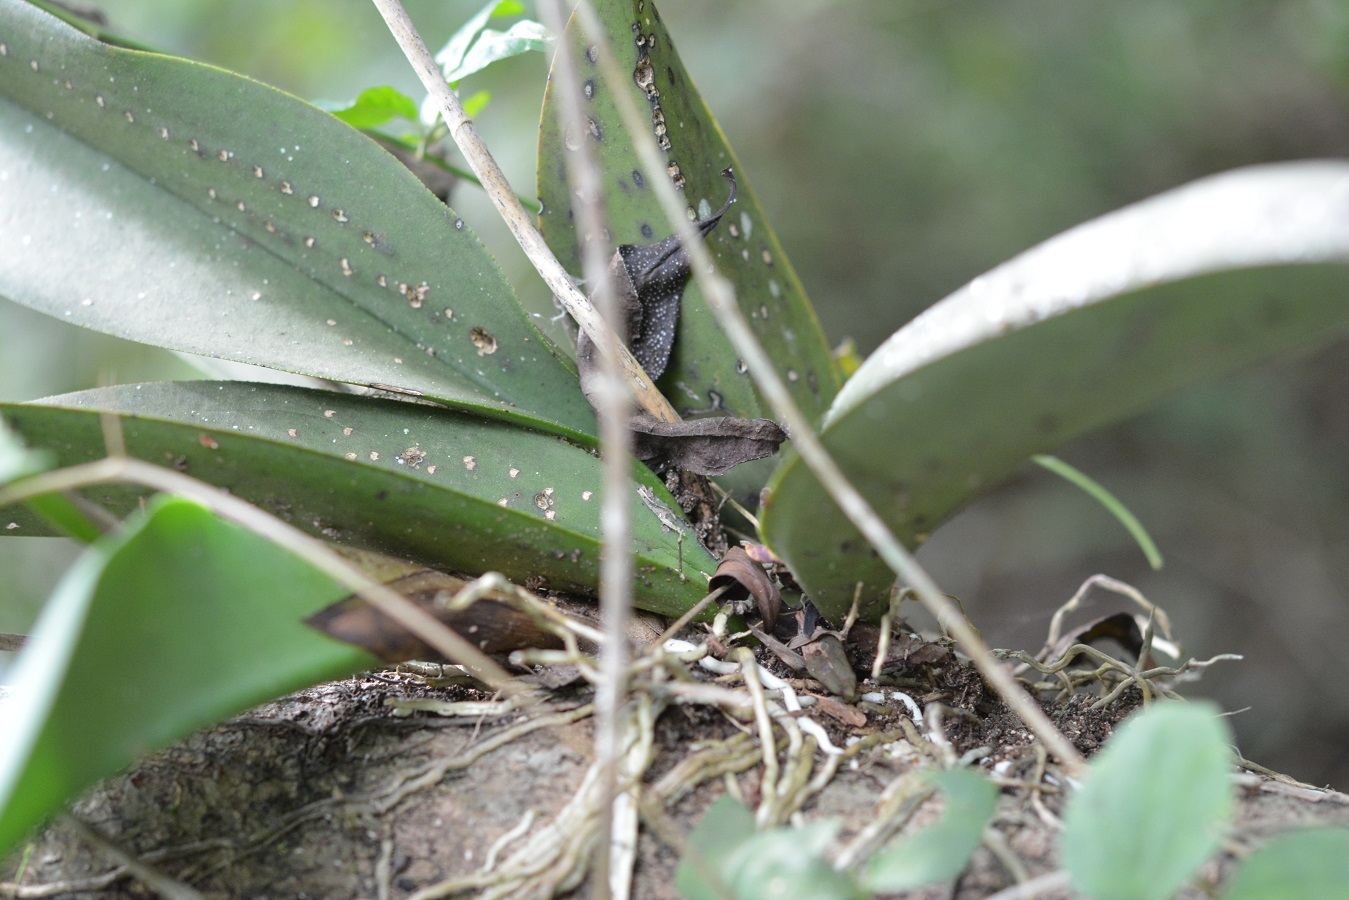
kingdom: Plantae
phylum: Tracheophyta
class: Liliopsida
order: Asparagales
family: Orchidaceae
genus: Trichocentrum
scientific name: Trichocentrum andreanum
